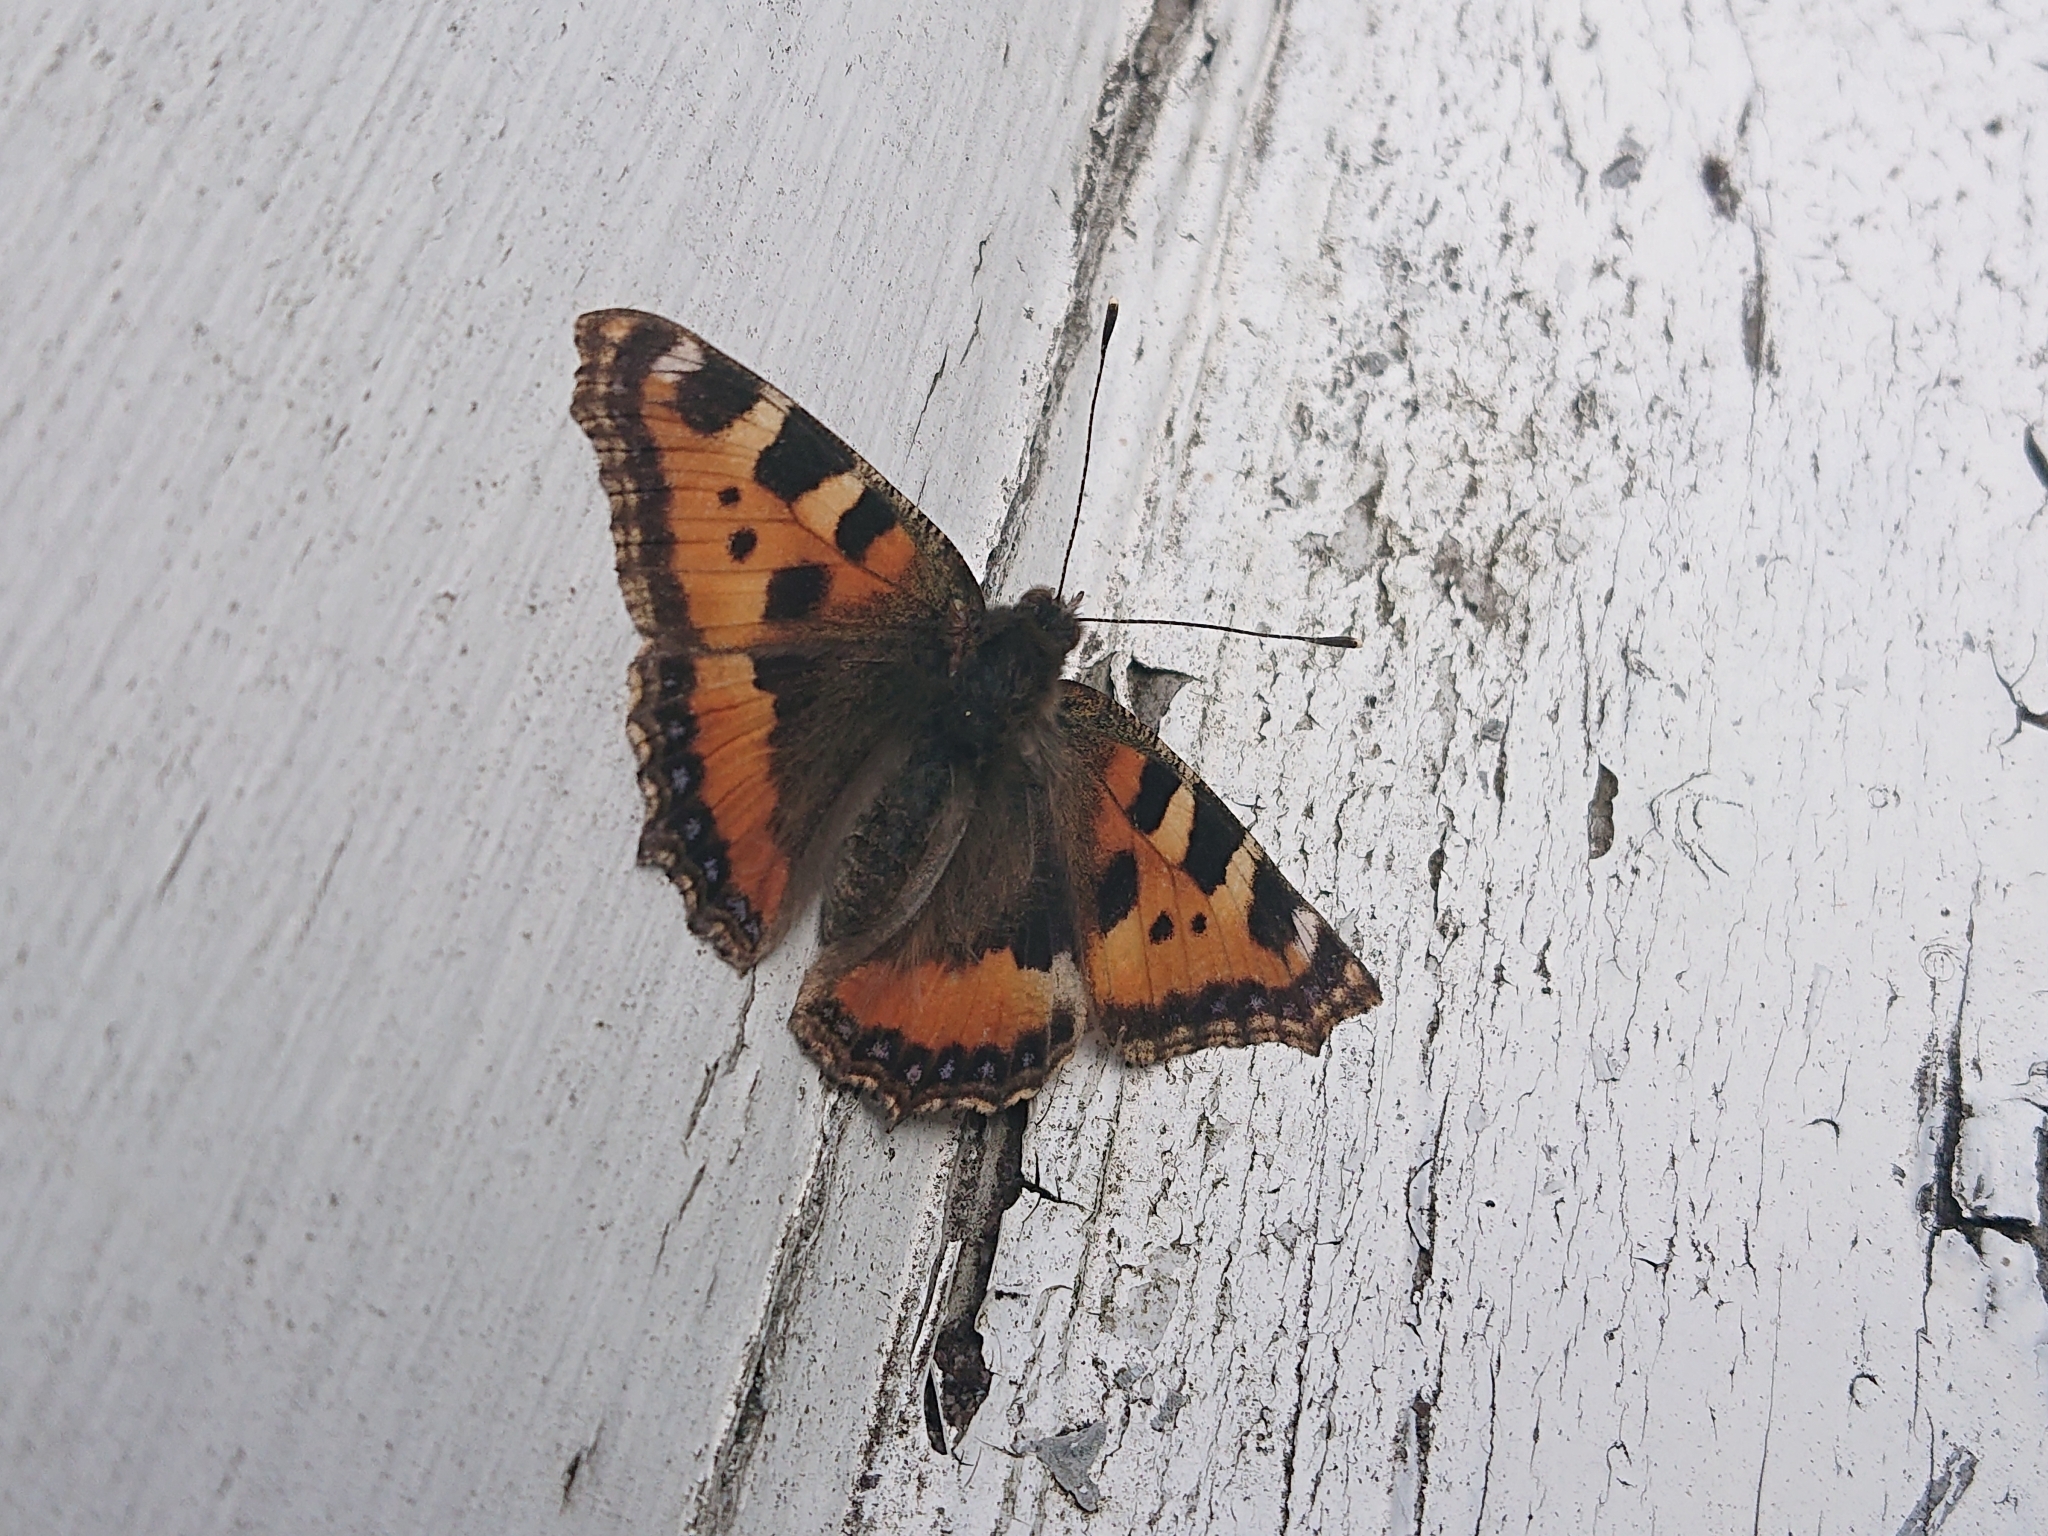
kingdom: Animalia
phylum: Arthropoda
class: Insecta
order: Lepidoptera
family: Nymphalidae
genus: Aglais
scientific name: Aglais urticae
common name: Small tortoiseshell
